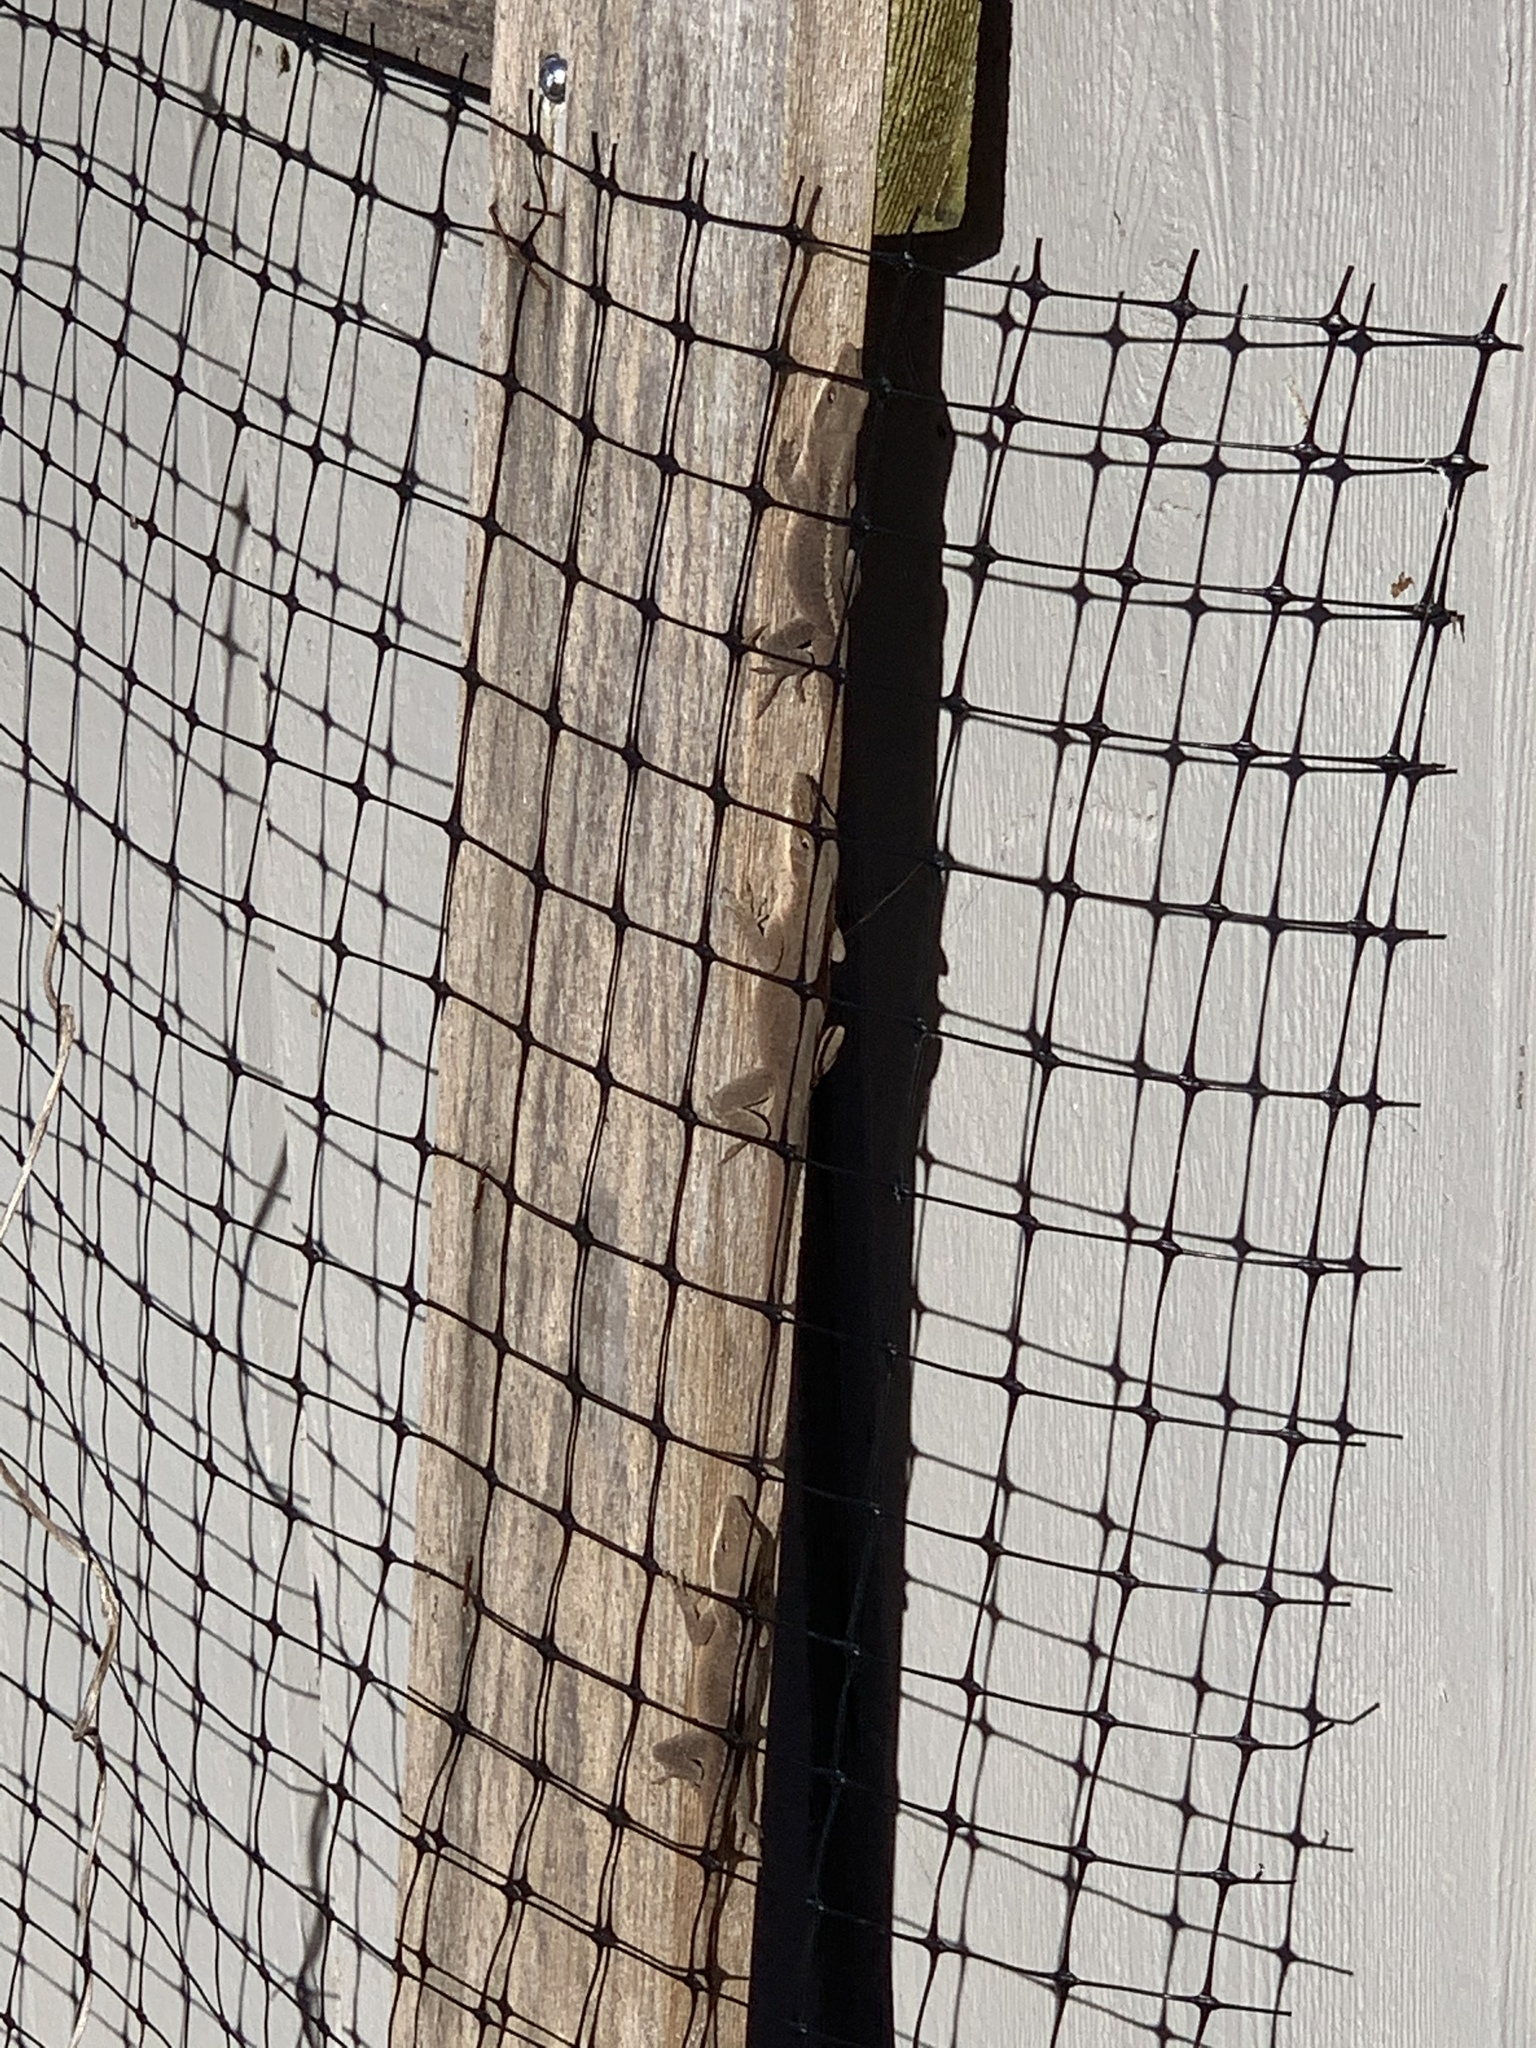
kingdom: Animalia
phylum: Chordata
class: Squamata
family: Dactyloidae
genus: Anolis
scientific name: Anolis carolinensis
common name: Green anole
